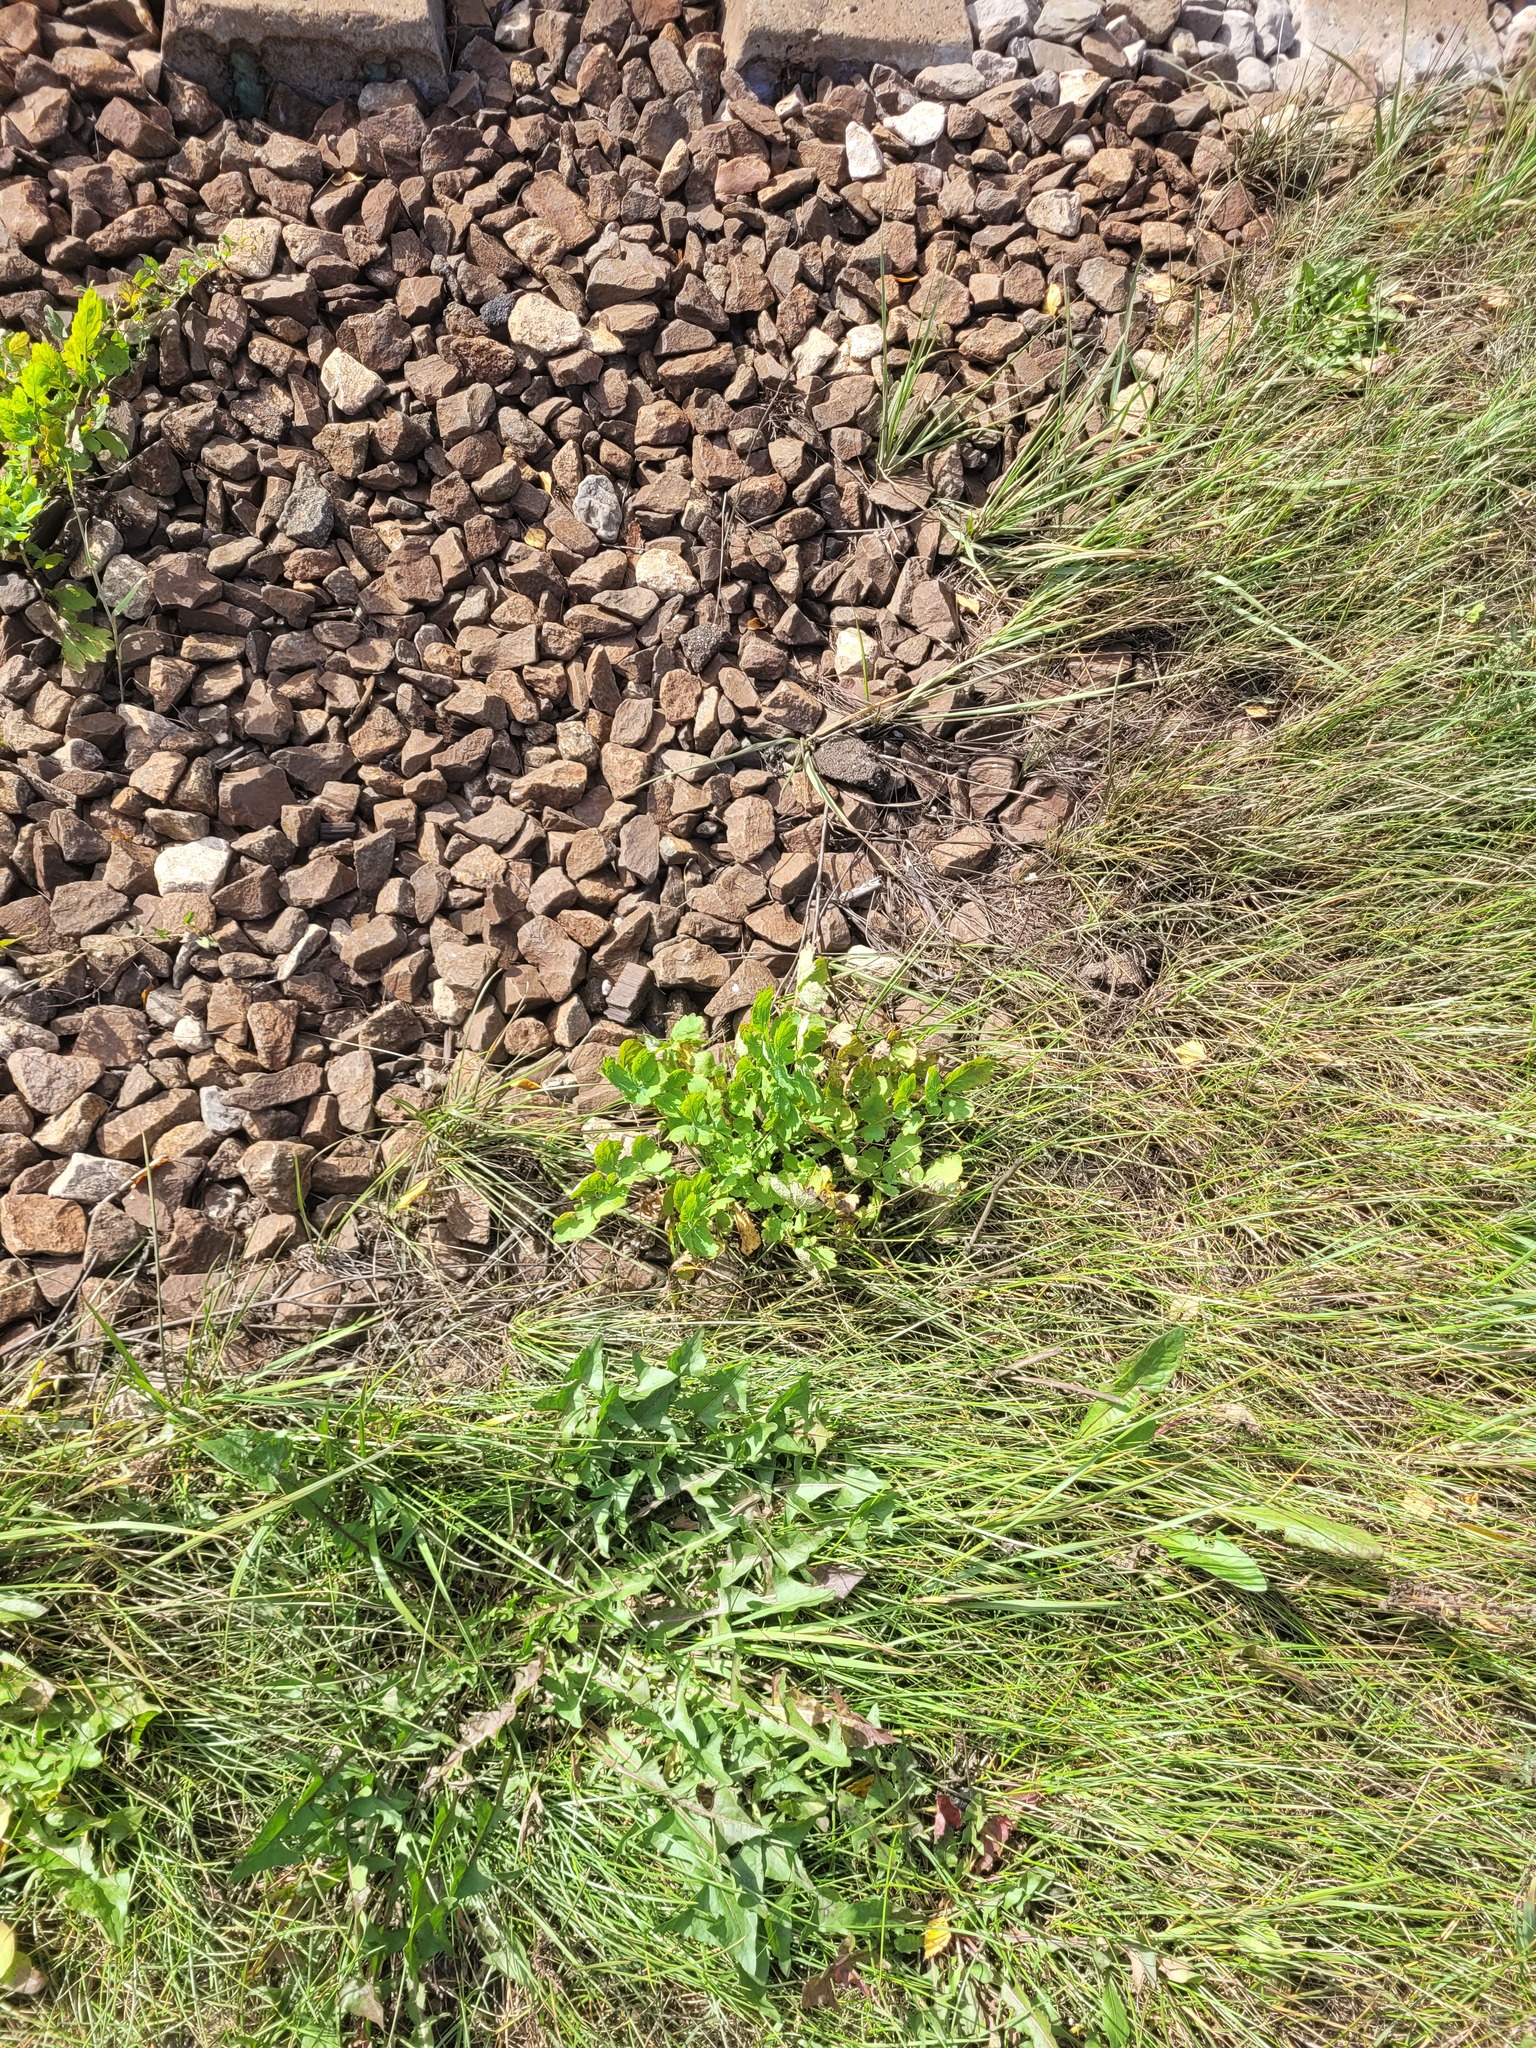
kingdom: Plantae
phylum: Tracheophyta
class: Magnoliopsida
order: Ranunculales
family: Papaveraceae
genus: Chelidonium
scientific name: Chelidonium majus
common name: Greater celandine
